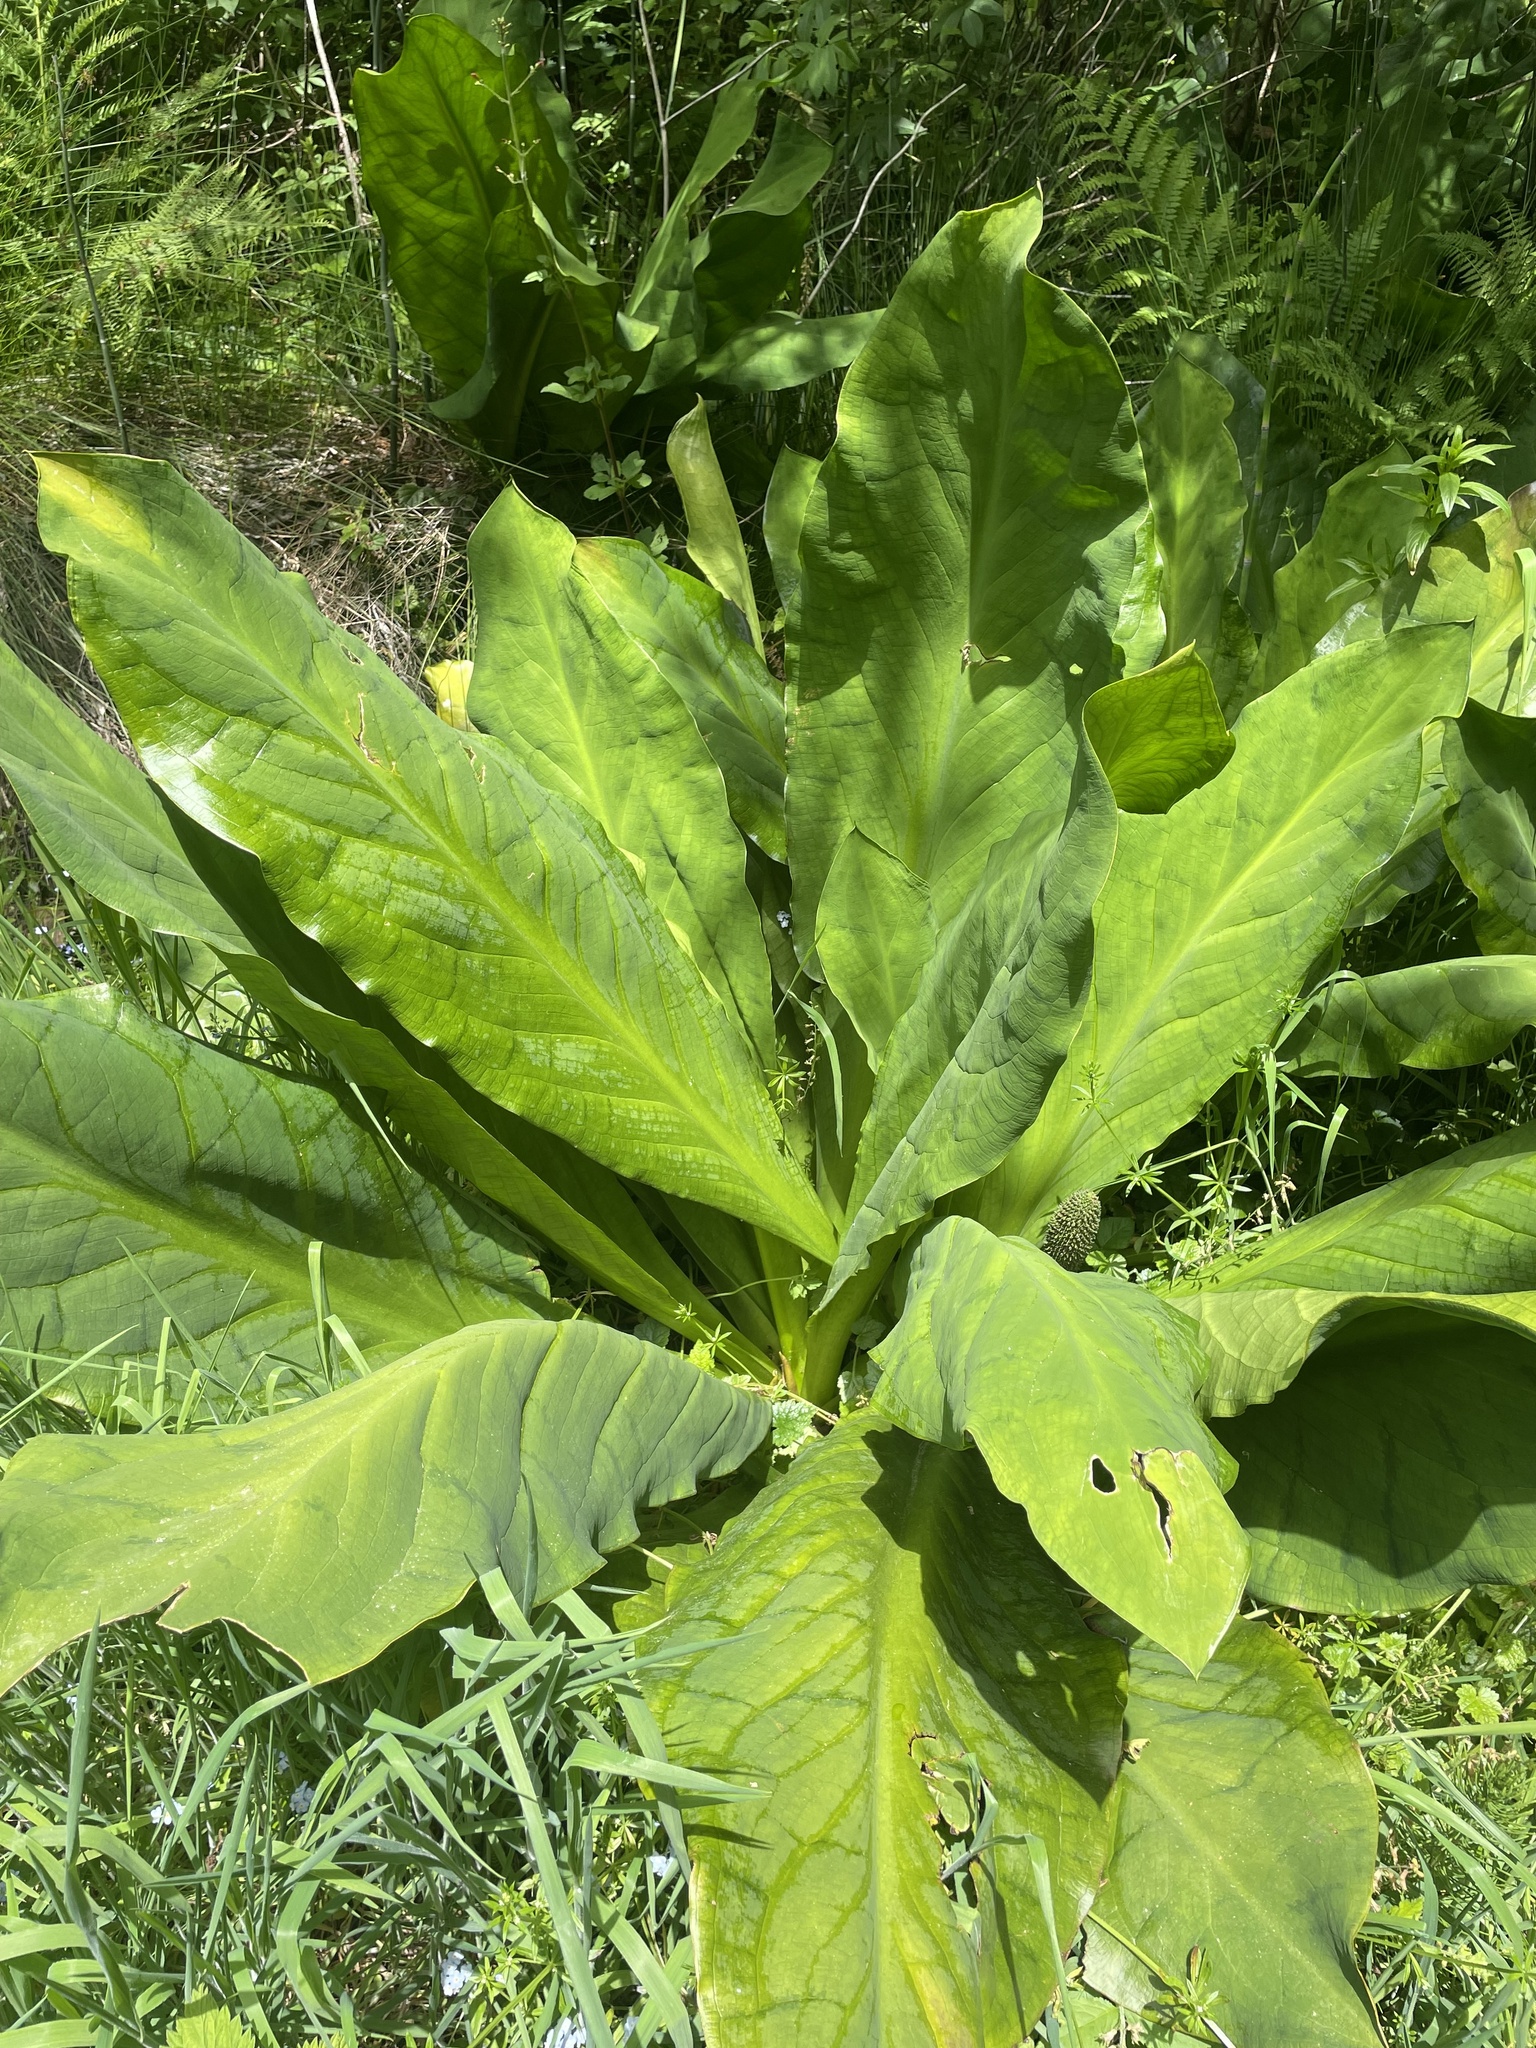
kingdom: Plantae
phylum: Tracheophyta
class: Liliopsida
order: Alismatales
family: Araceae
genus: Lysichiton
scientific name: Lysichiton americanus
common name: American skunk cabbage
